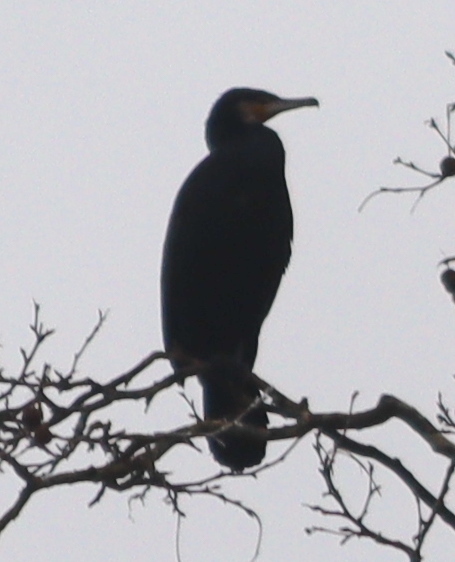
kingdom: Animalia
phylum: Chordata
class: Aves
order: Suliformes
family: Phalacrocoracidae
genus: Phalacrocorax
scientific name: Phalacrocorax carbo
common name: Great cormorant
